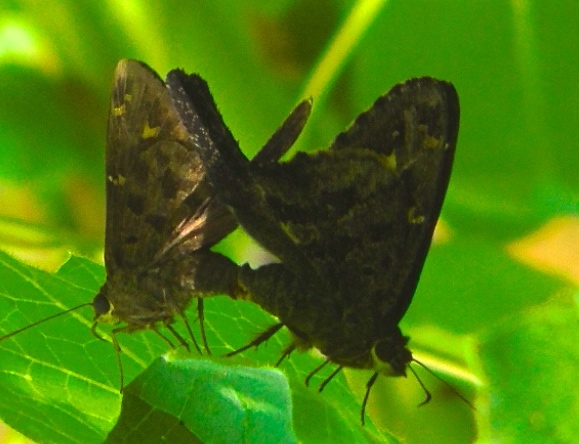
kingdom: Animalia
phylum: Arthropoda
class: Insecta
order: Lepidoptera
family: Hesperiidae
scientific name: Hesperiidae
